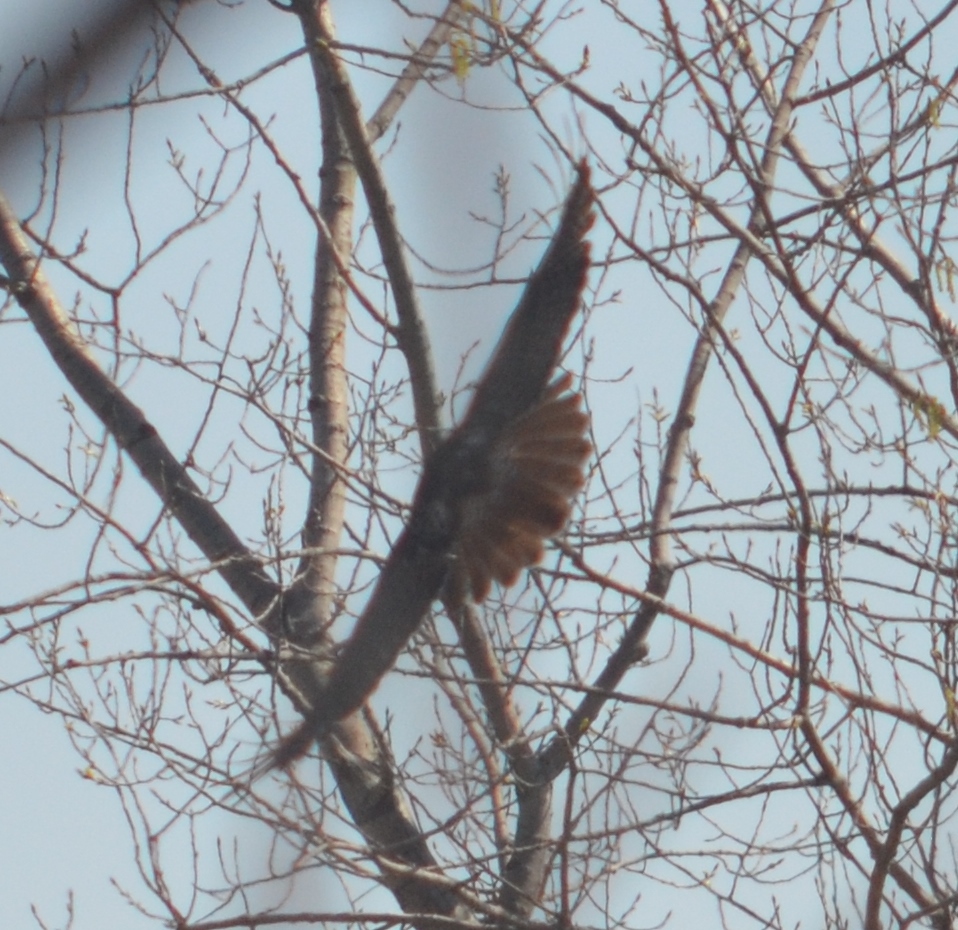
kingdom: Animalia
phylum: Chordata
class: Aves
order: Accipitriformes
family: Accipitridae
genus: Buteo
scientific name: Buteo jamaicensis
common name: Red-tailed hawk
